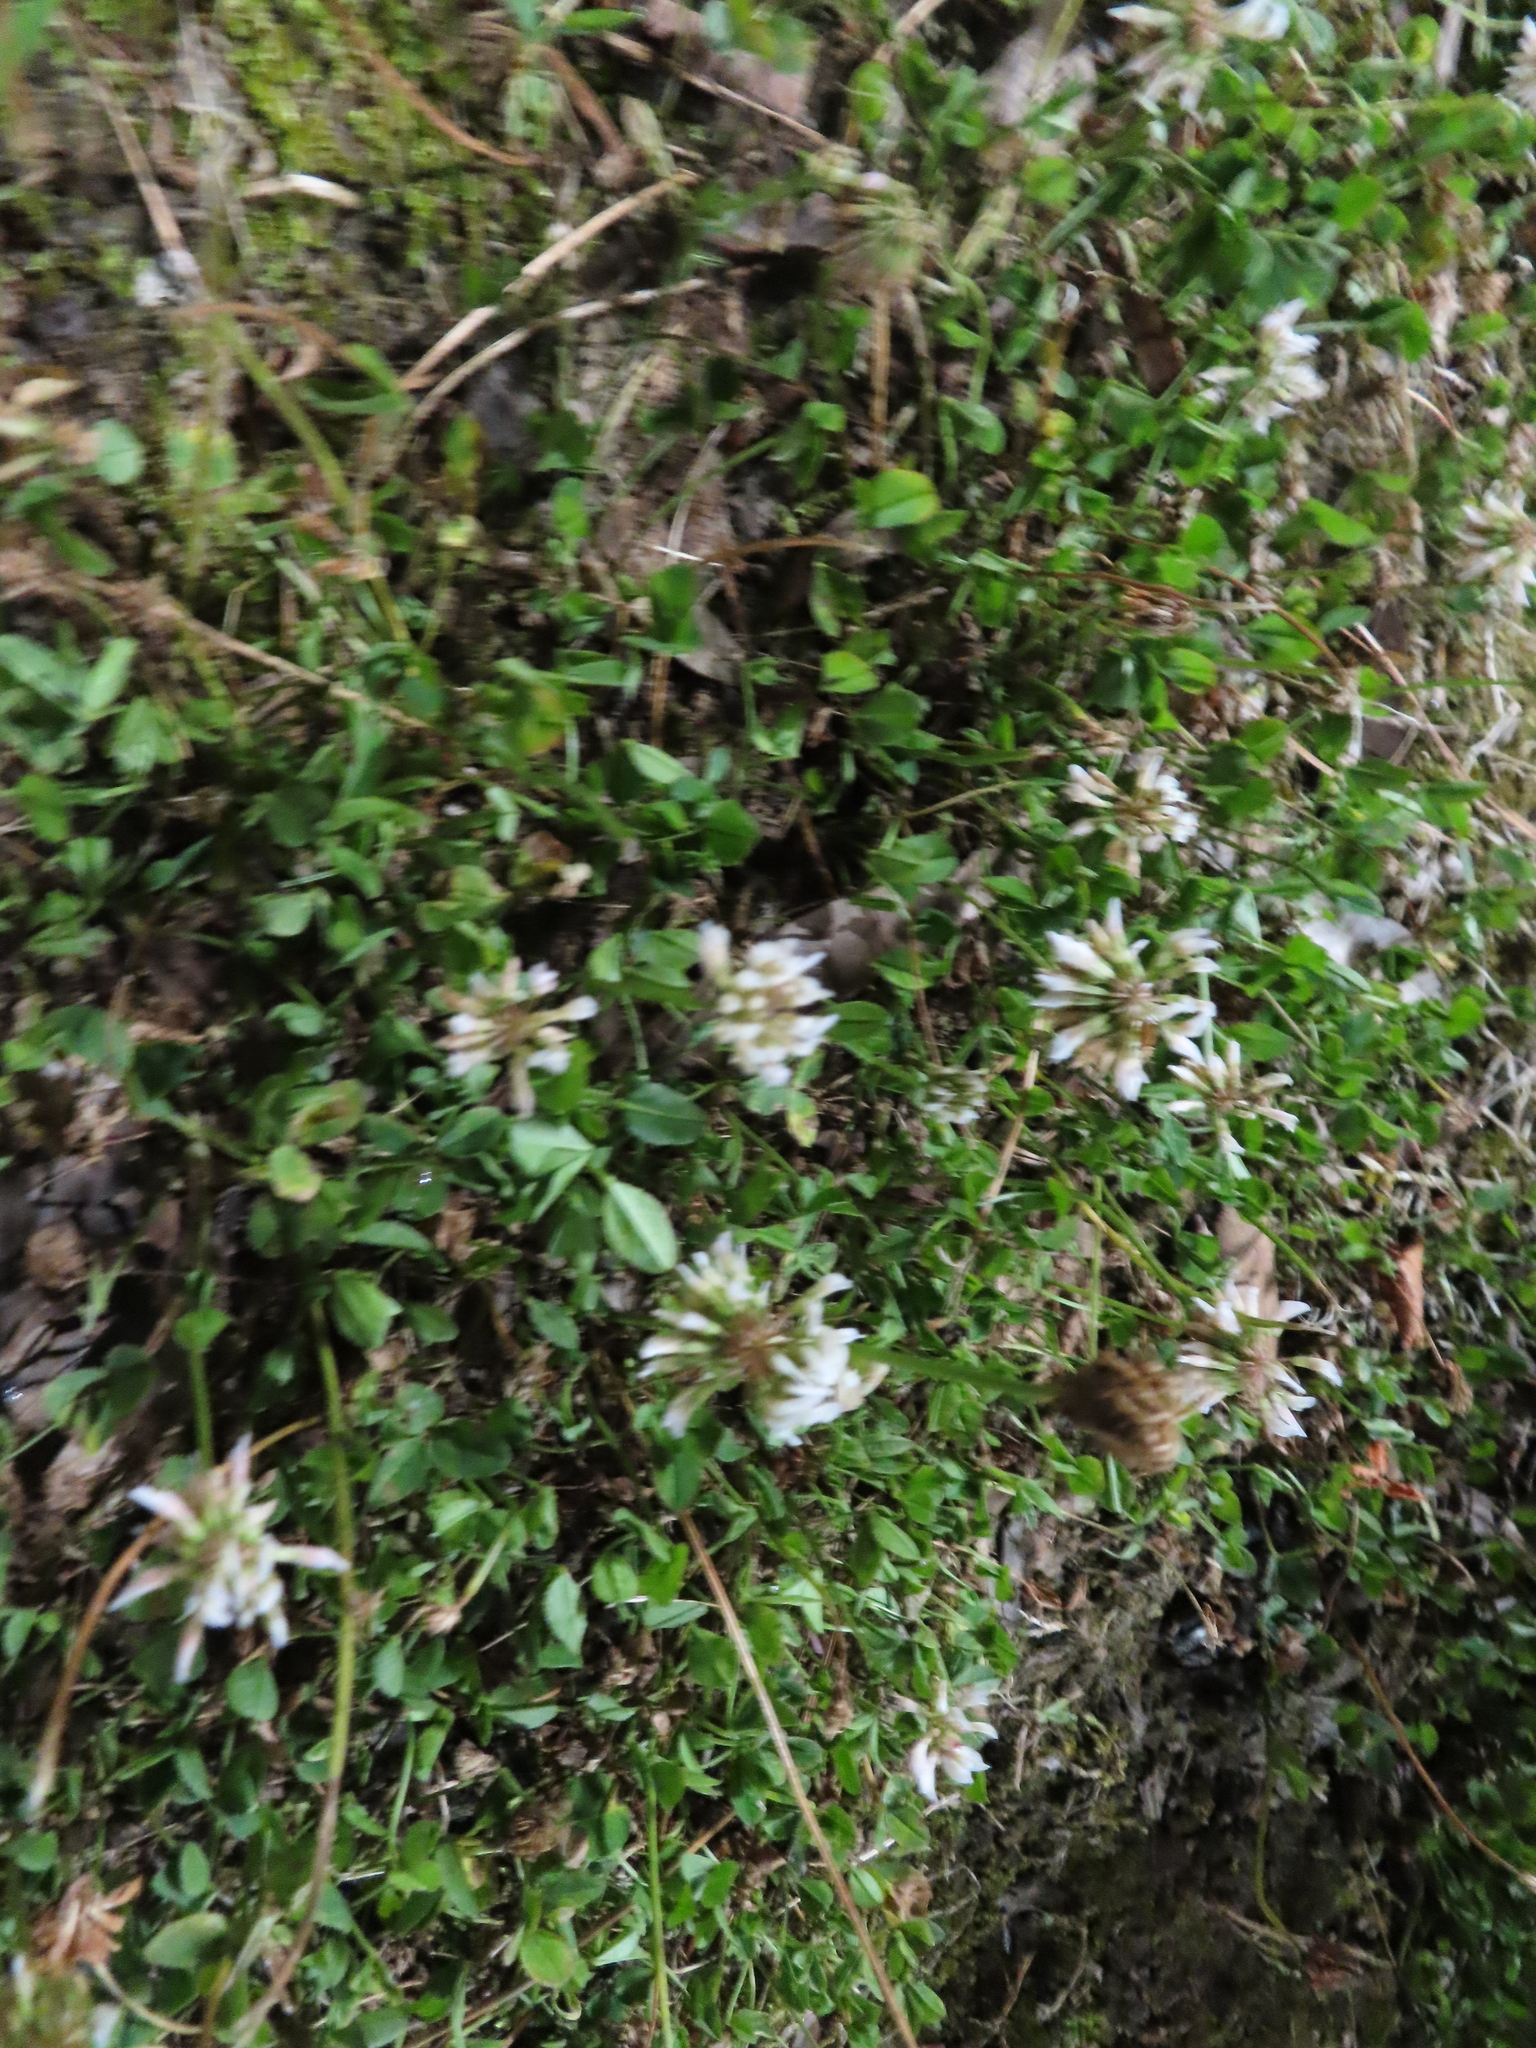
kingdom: Plantae
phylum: Tracheophyta
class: Magnoliopsida
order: Fabales
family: Fabaceae
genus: Trifolium
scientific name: Trifolium repens
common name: White clover
